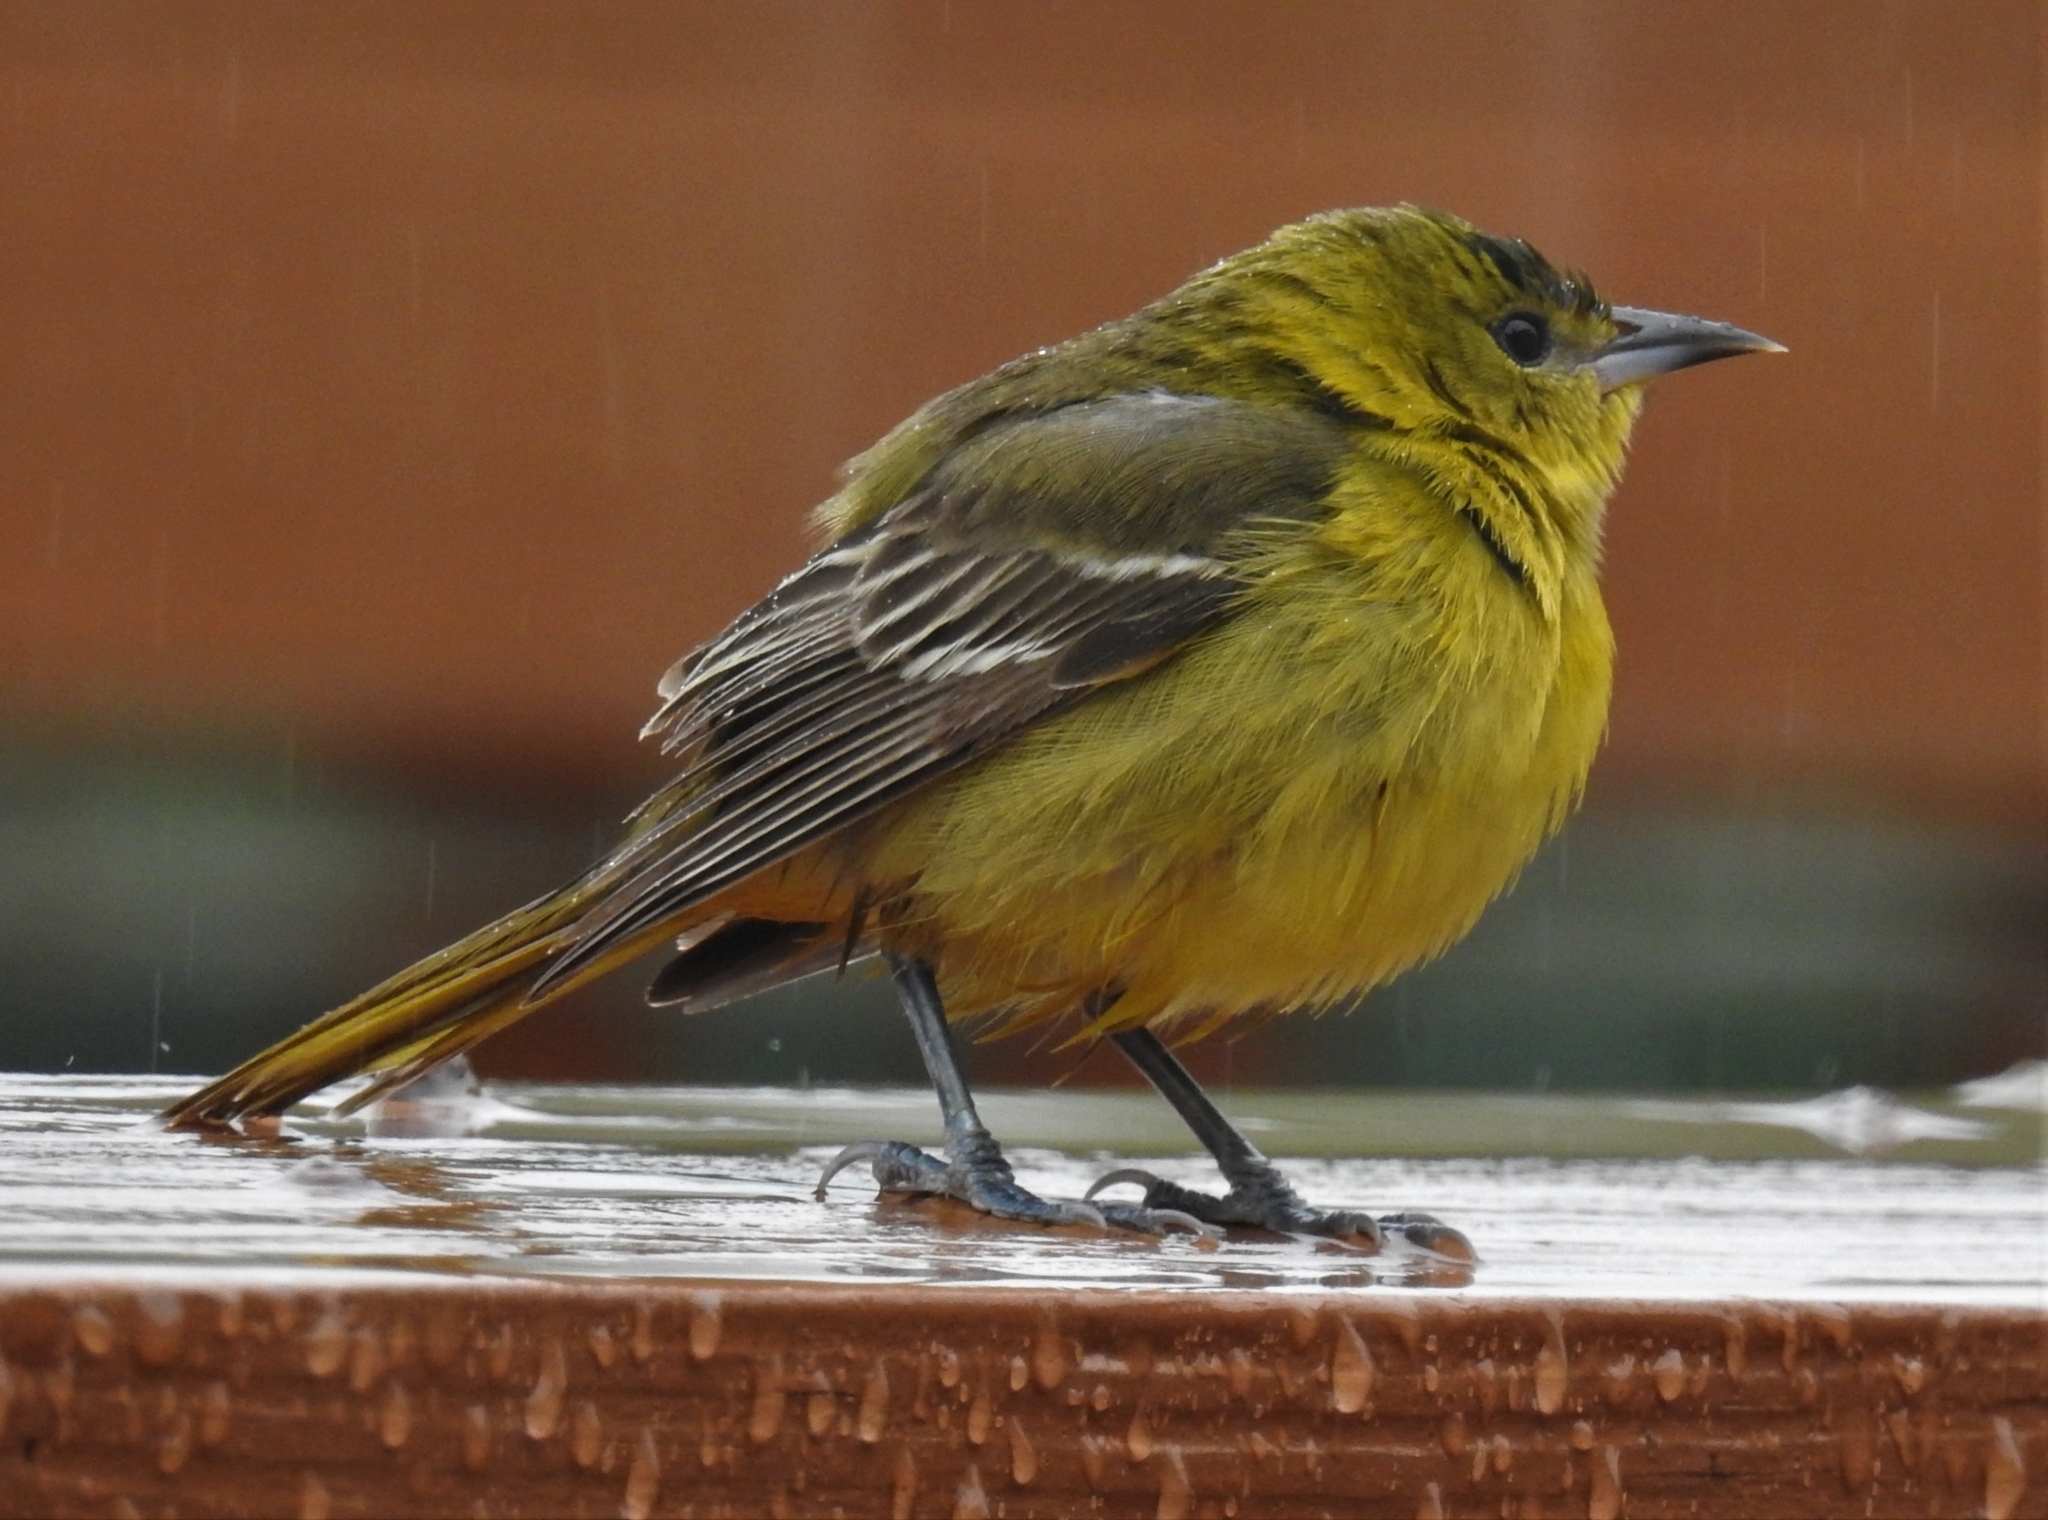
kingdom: Animalia
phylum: Chordata
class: Aves
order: Passeriformes
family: Icteridae
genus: Icterus
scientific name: Icterus spurius
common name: Orchard oriole
